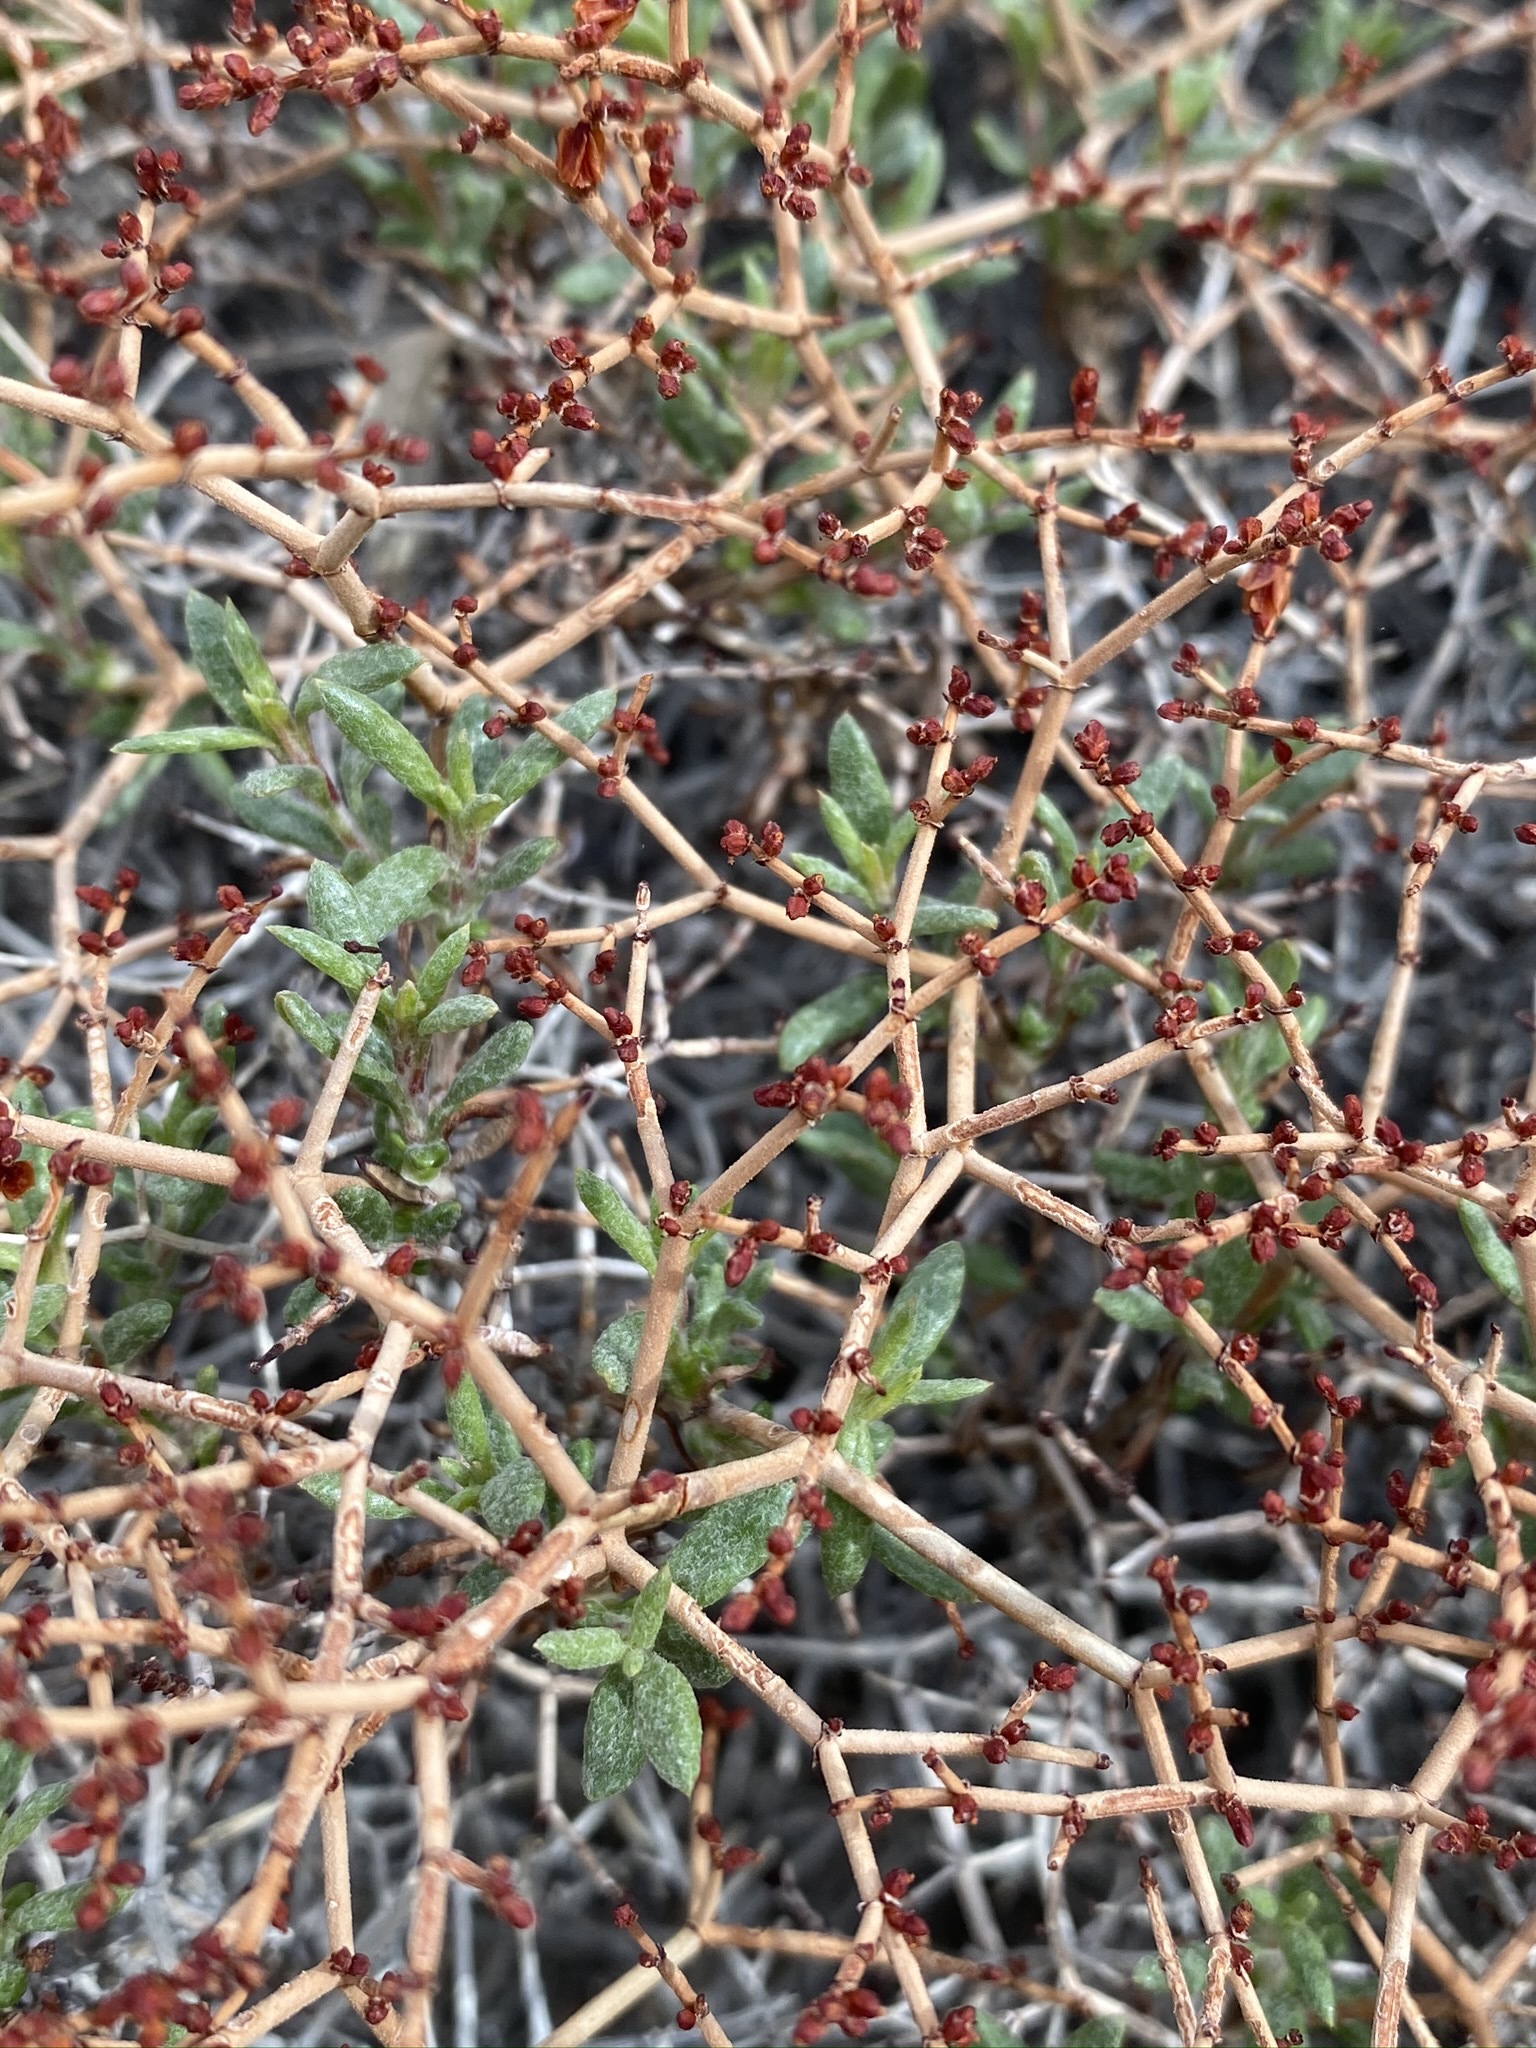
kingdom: Plantae
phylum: Tracheophyta
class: Magnoliopsida
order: Caryophyllales
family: Polygonaceae
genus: Eriogonum
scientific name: Eriogonum heermannii
